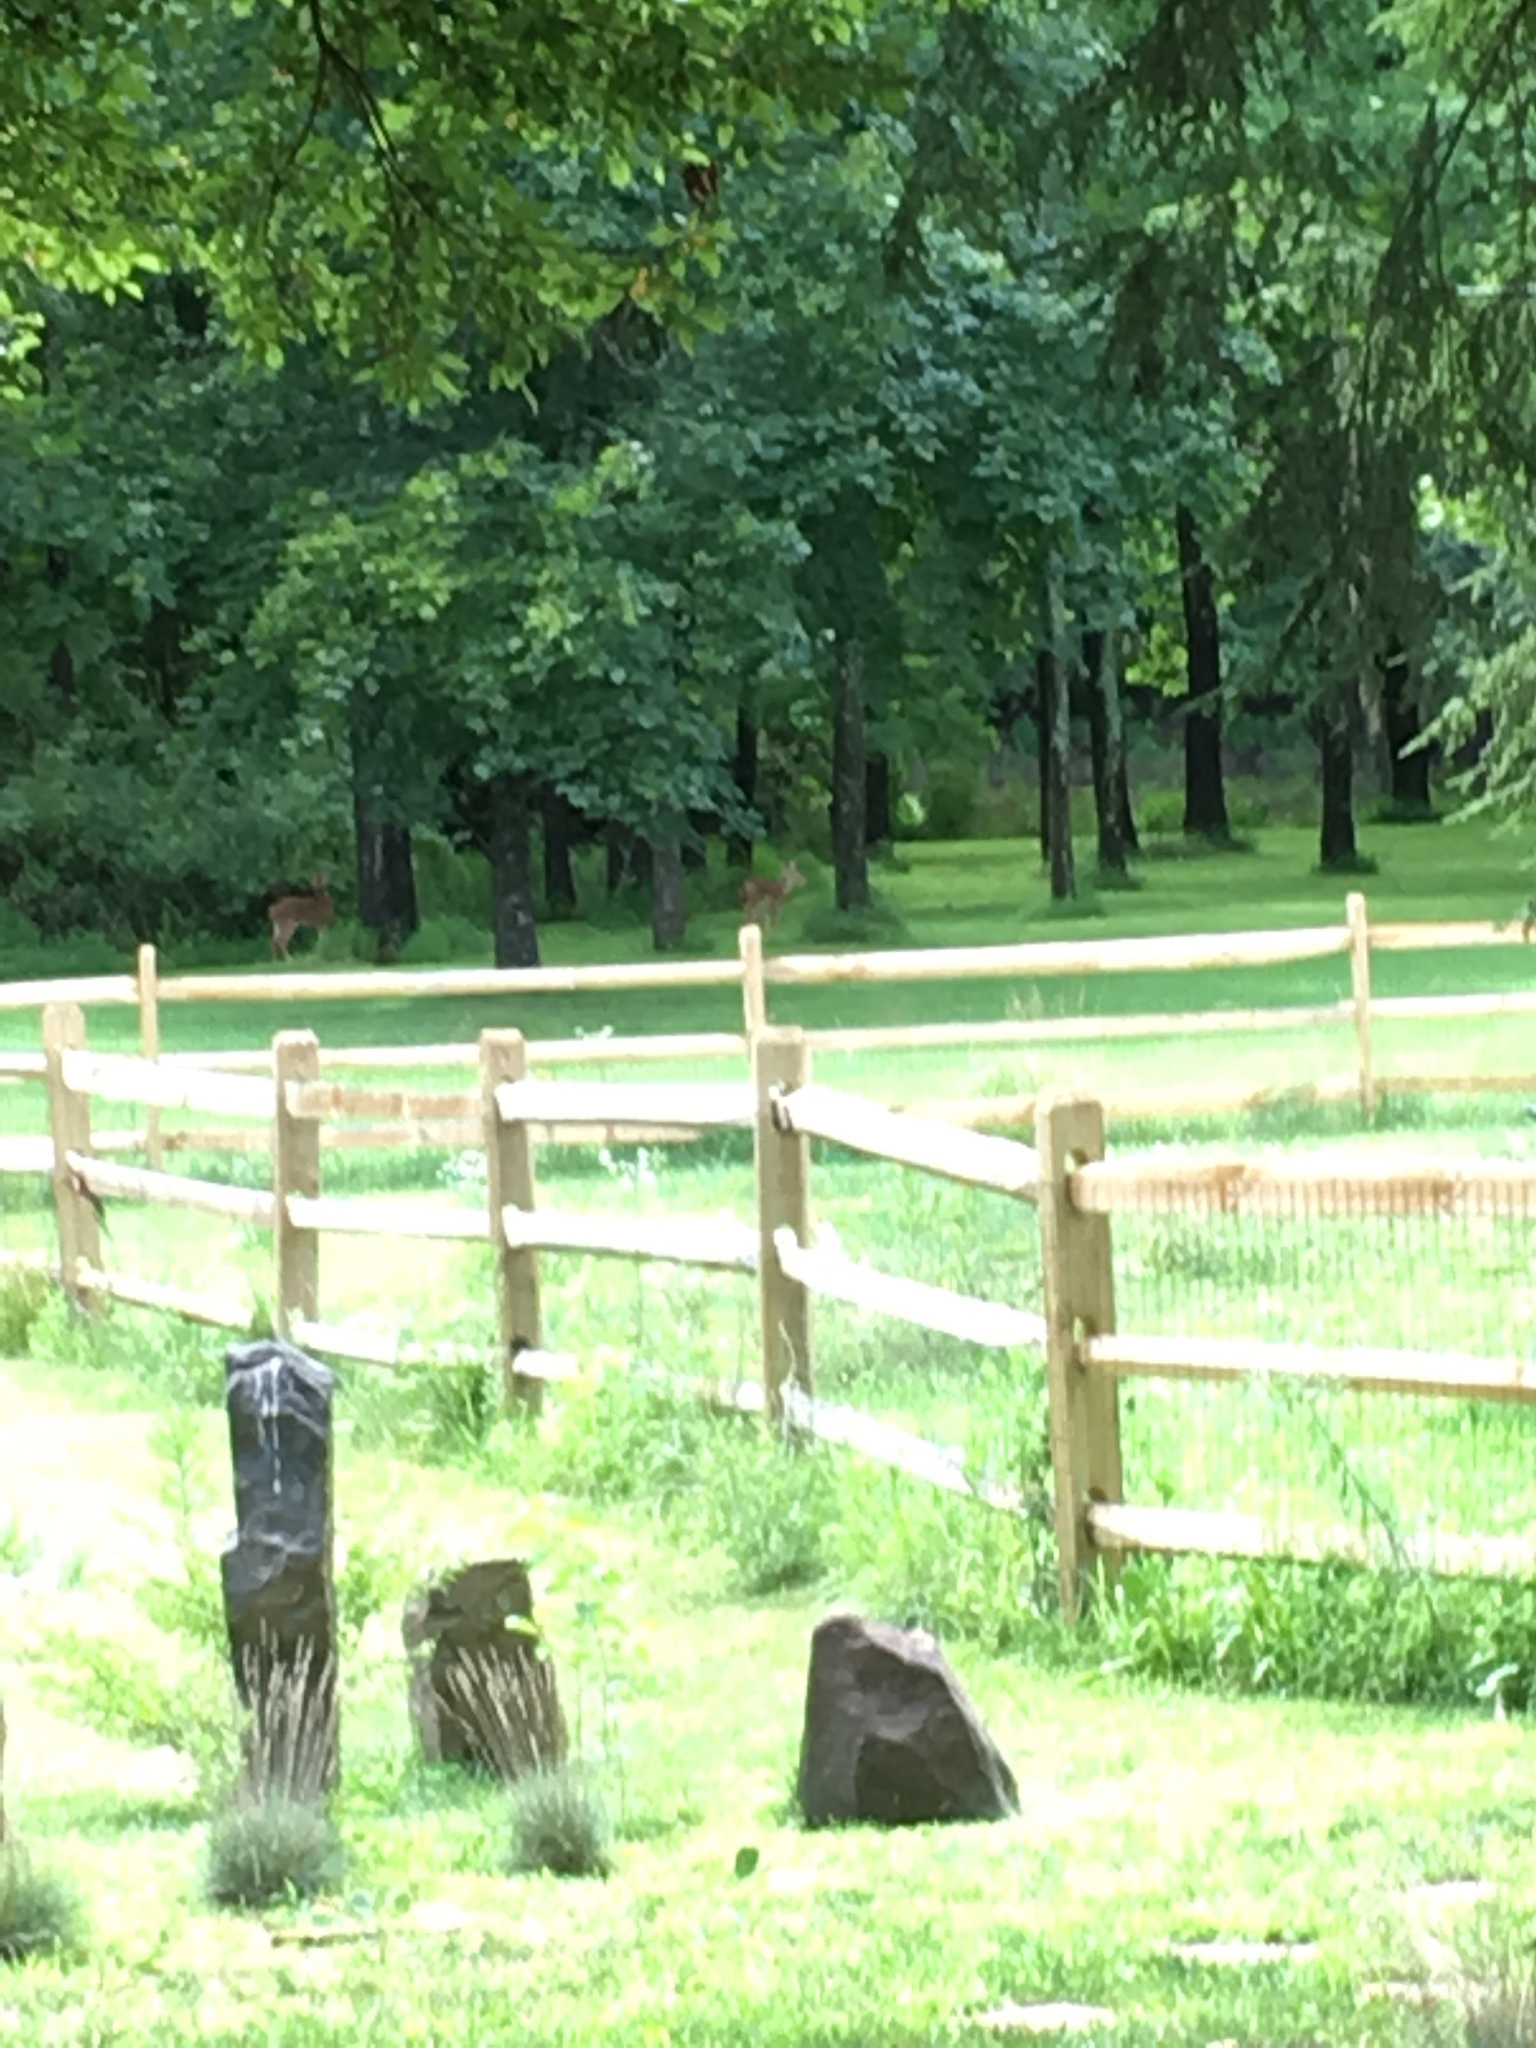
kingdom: Animalia
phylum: Chordata
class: Mammalia
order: Artiodactyla
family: Cervidae
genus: Odocoileus
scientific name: Odocoileus virginianus
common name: White-tailed deer
